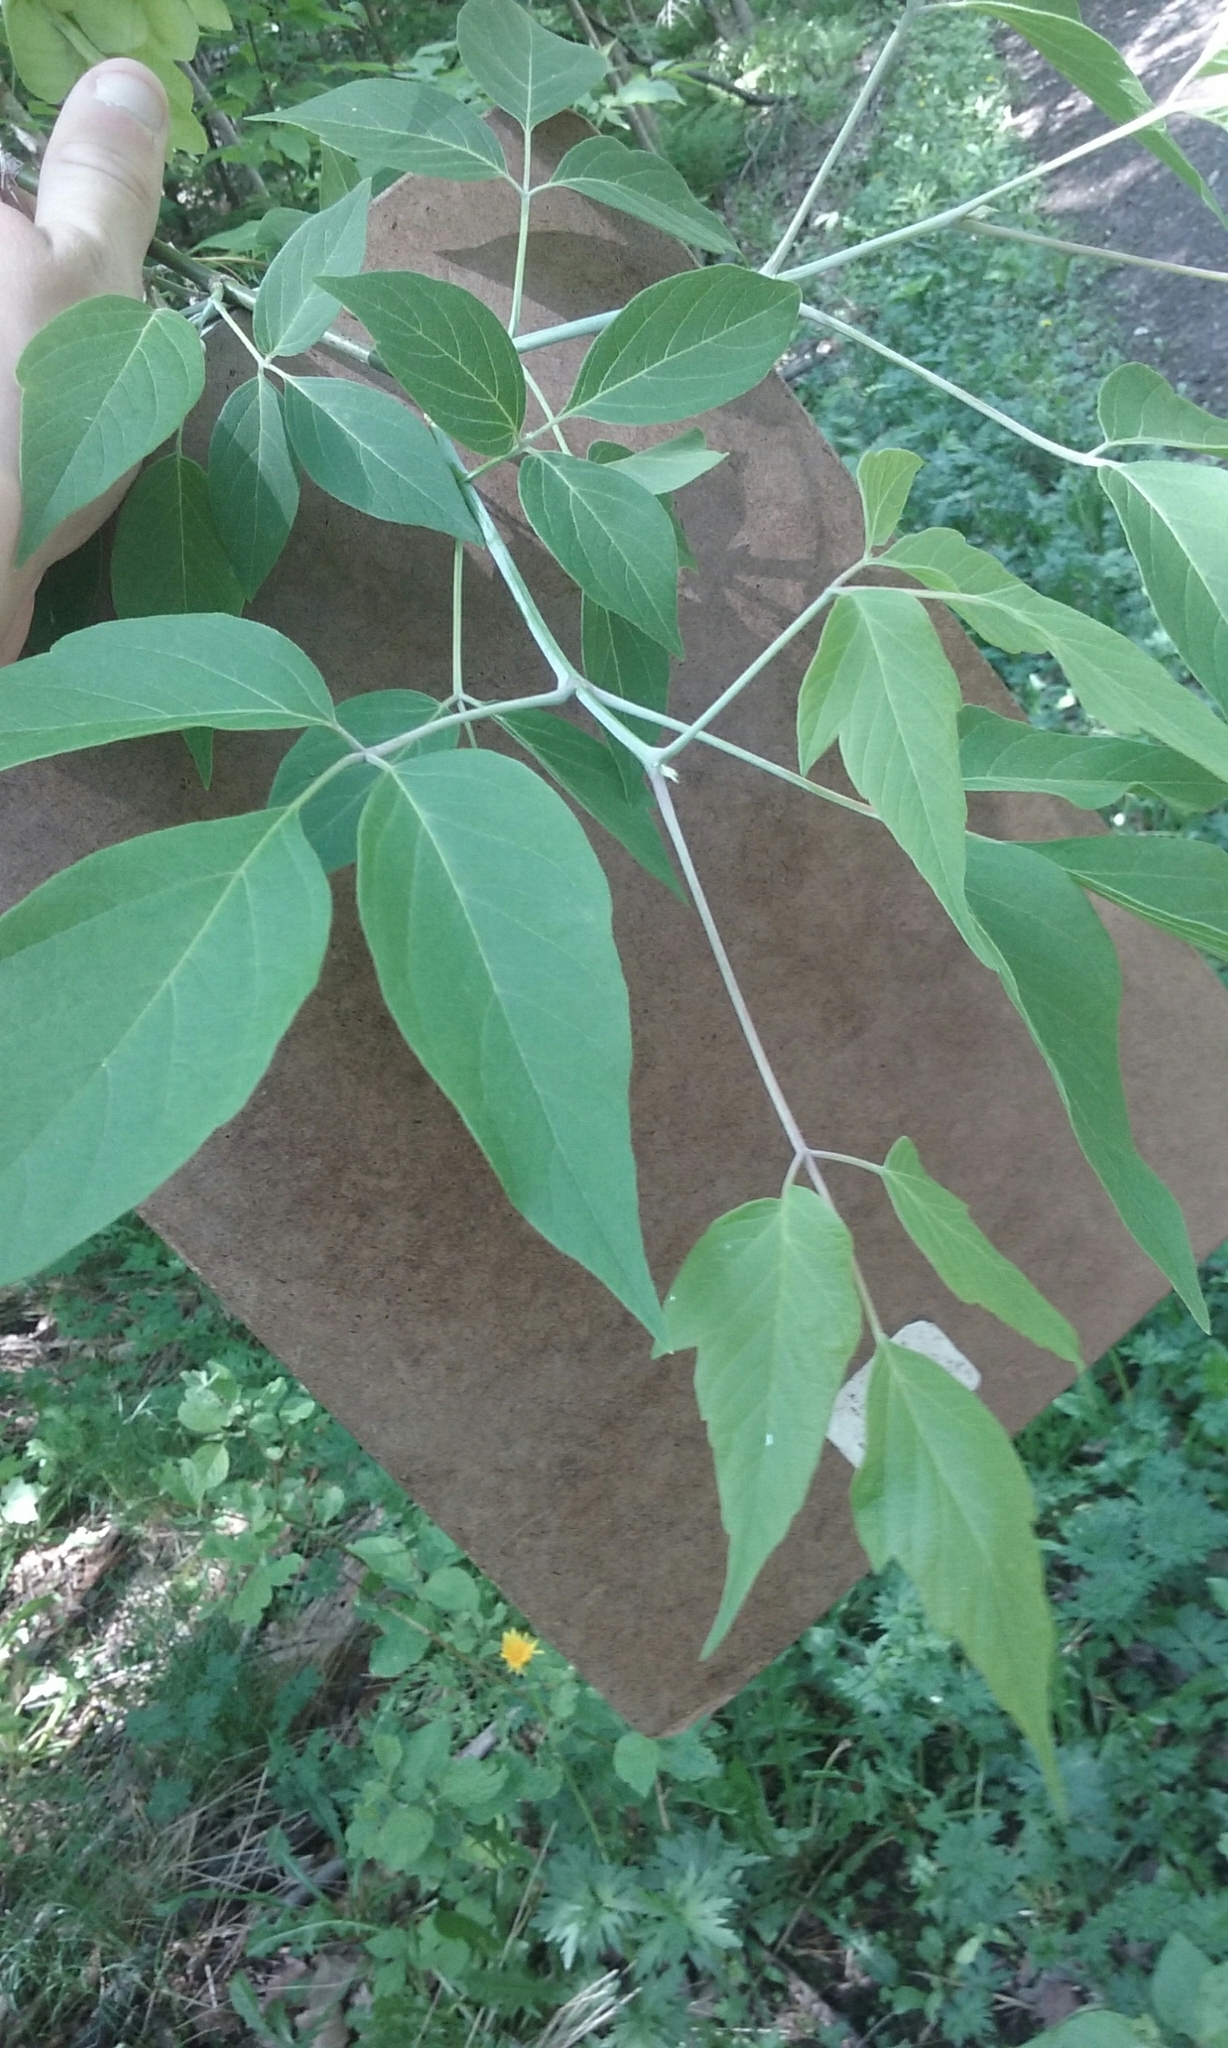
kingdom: Plantae
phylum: Tracheophyta
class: Magnoliopsida
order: Sapindales
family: Sapindaceae
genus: Acer
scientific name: Acer negundo
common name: Ashleaf maple
